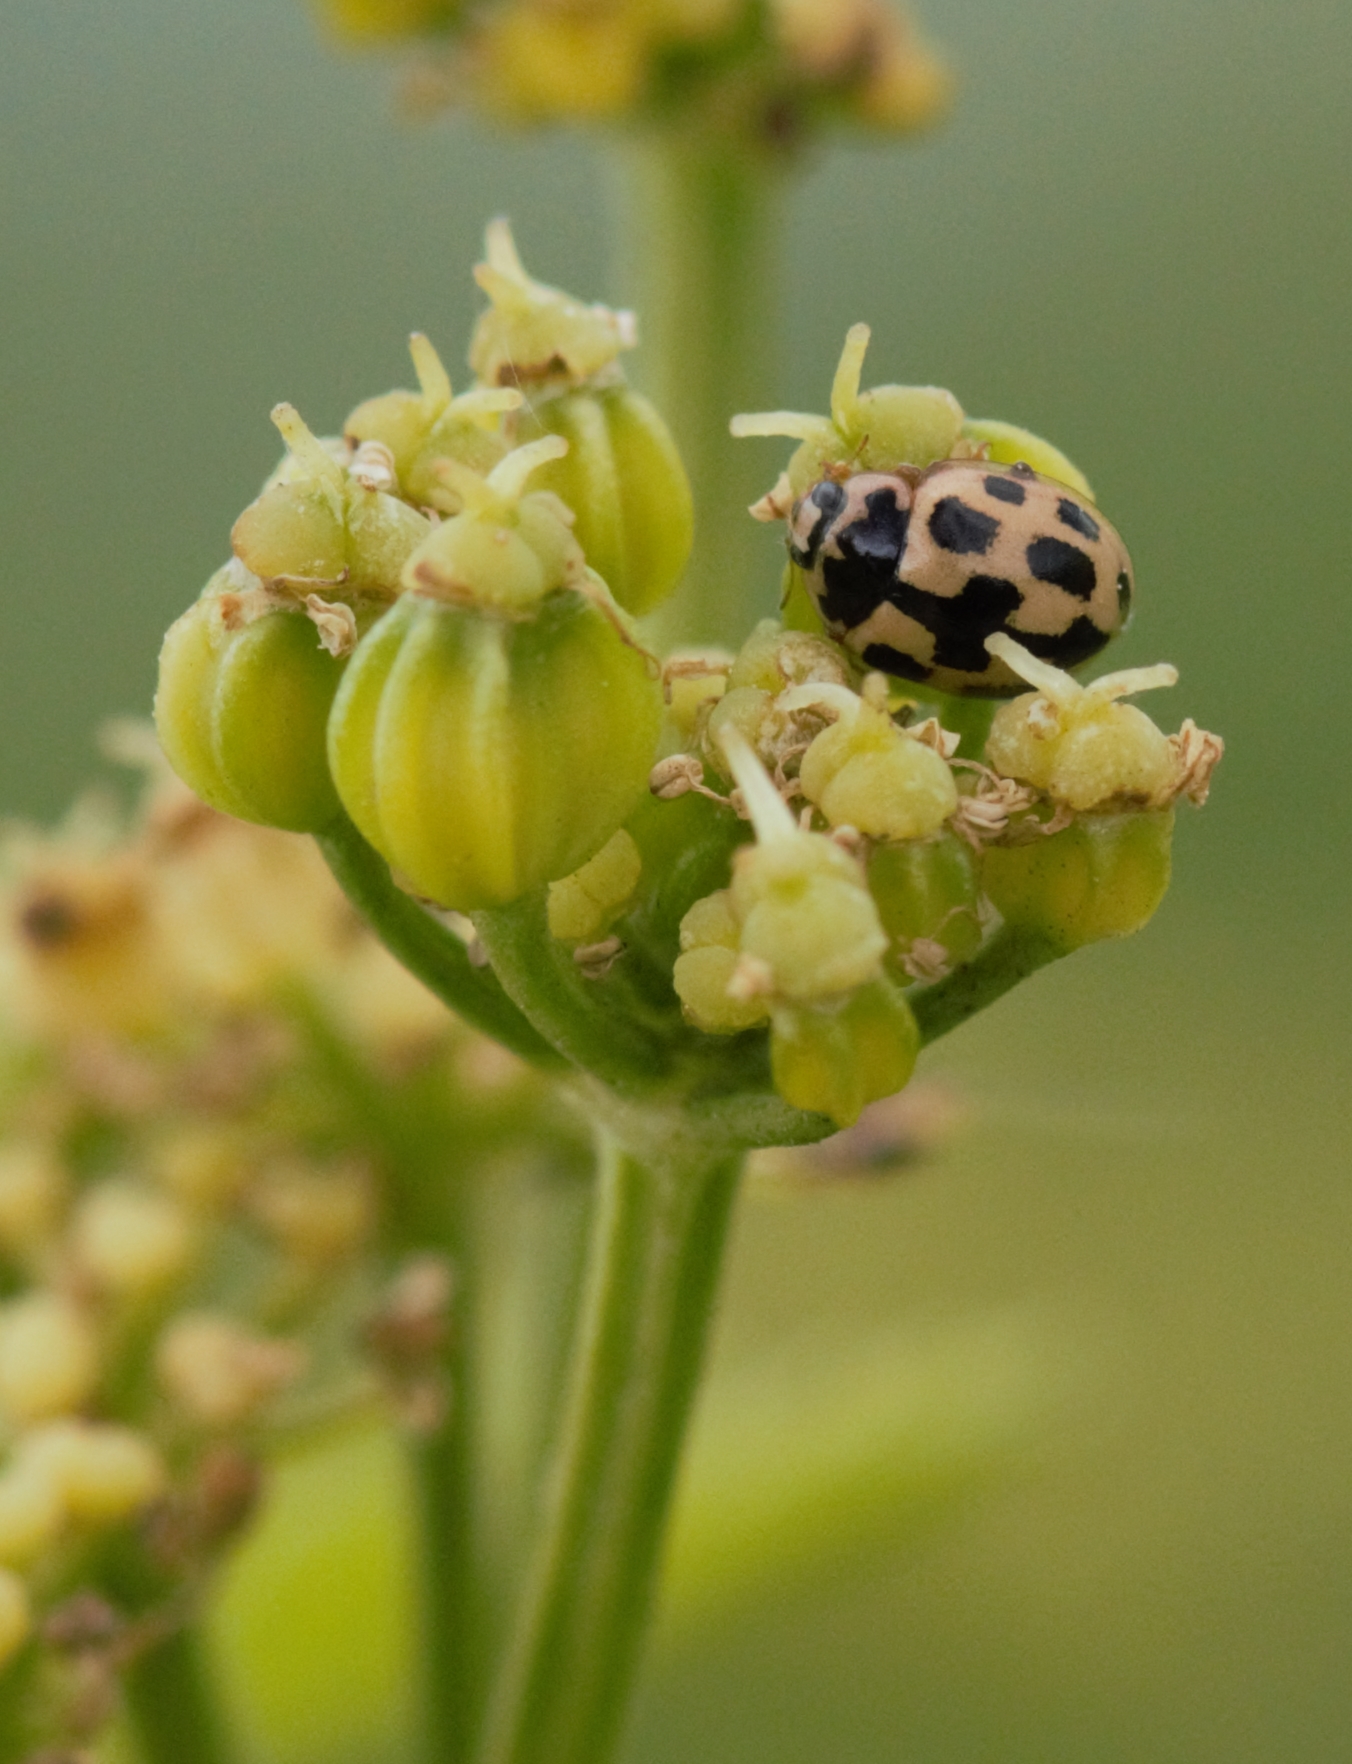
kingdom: Animalia
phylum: Arthropoda
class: Insecta
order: Coleoptera
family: Coccinellidae
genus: Propylaea
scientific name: Propylaea quatuordecimpunctata
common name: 14-spotted ladybird beetle
